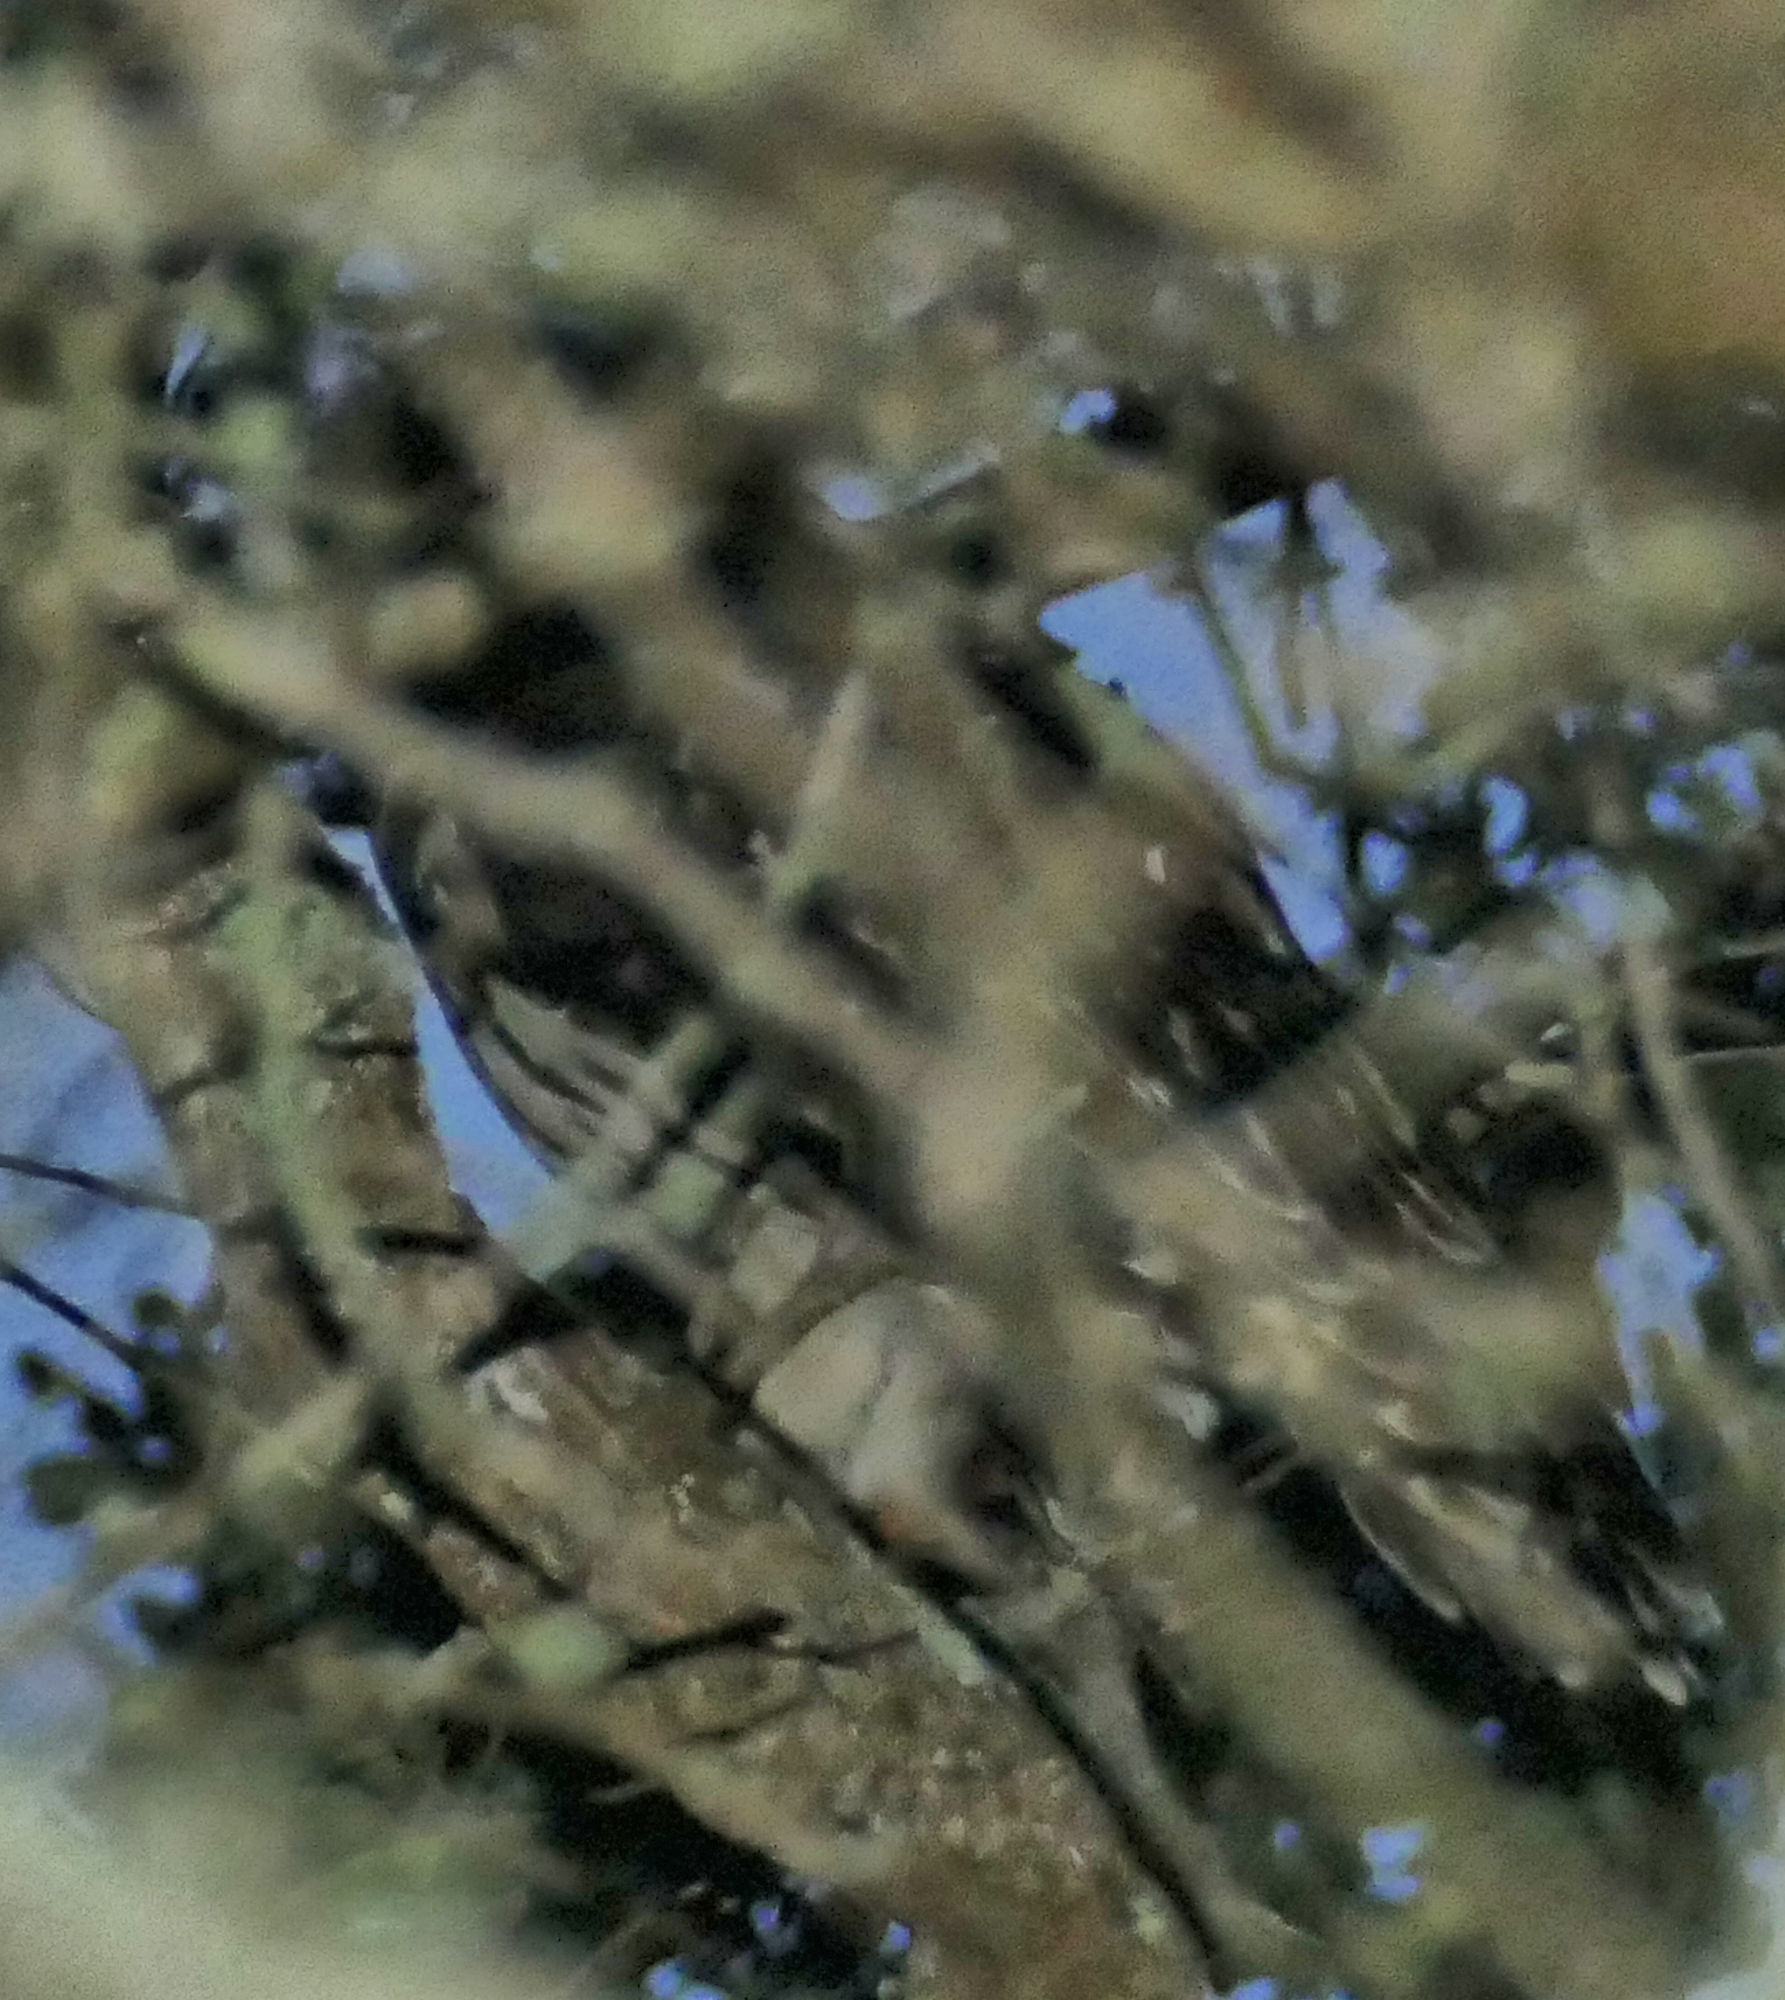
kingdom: Animalia
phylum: Chordata
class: Aves
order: Strigiformes
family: Strigidae
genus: Strix
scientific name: Strix varia
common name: Barred owl
